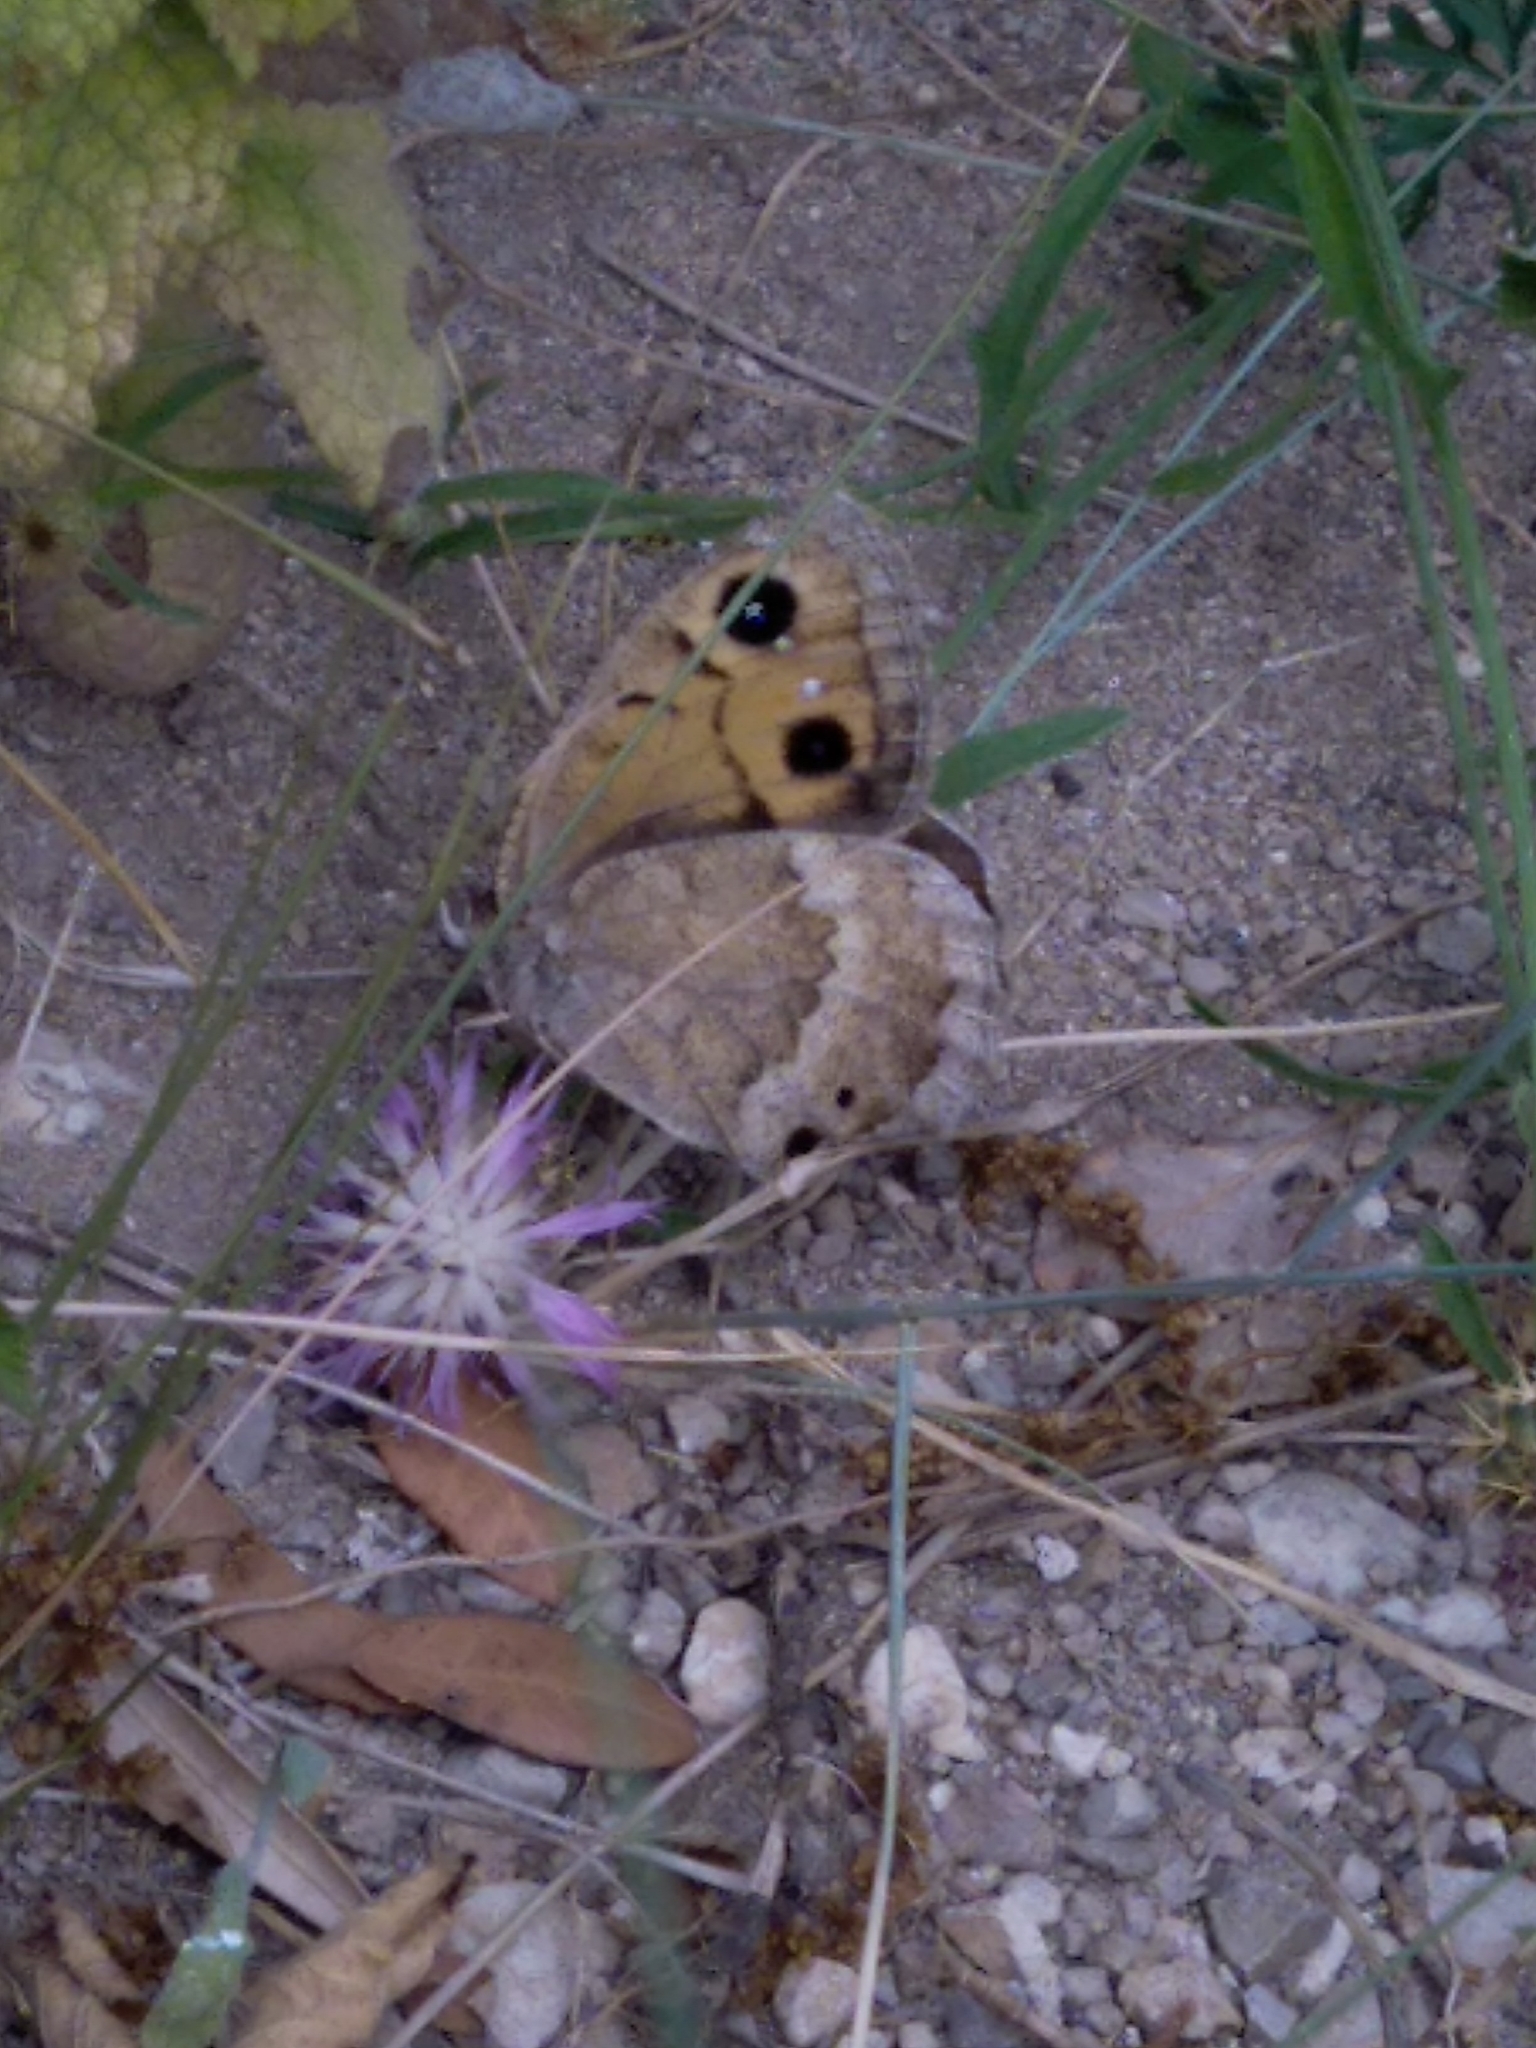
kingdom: Animalia
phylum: Arthropoda
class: Insecta
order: Lepidoptera
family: Nymphalidae
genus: Satyrus
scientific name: Satyrus ferula
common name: Great sooty satyr
